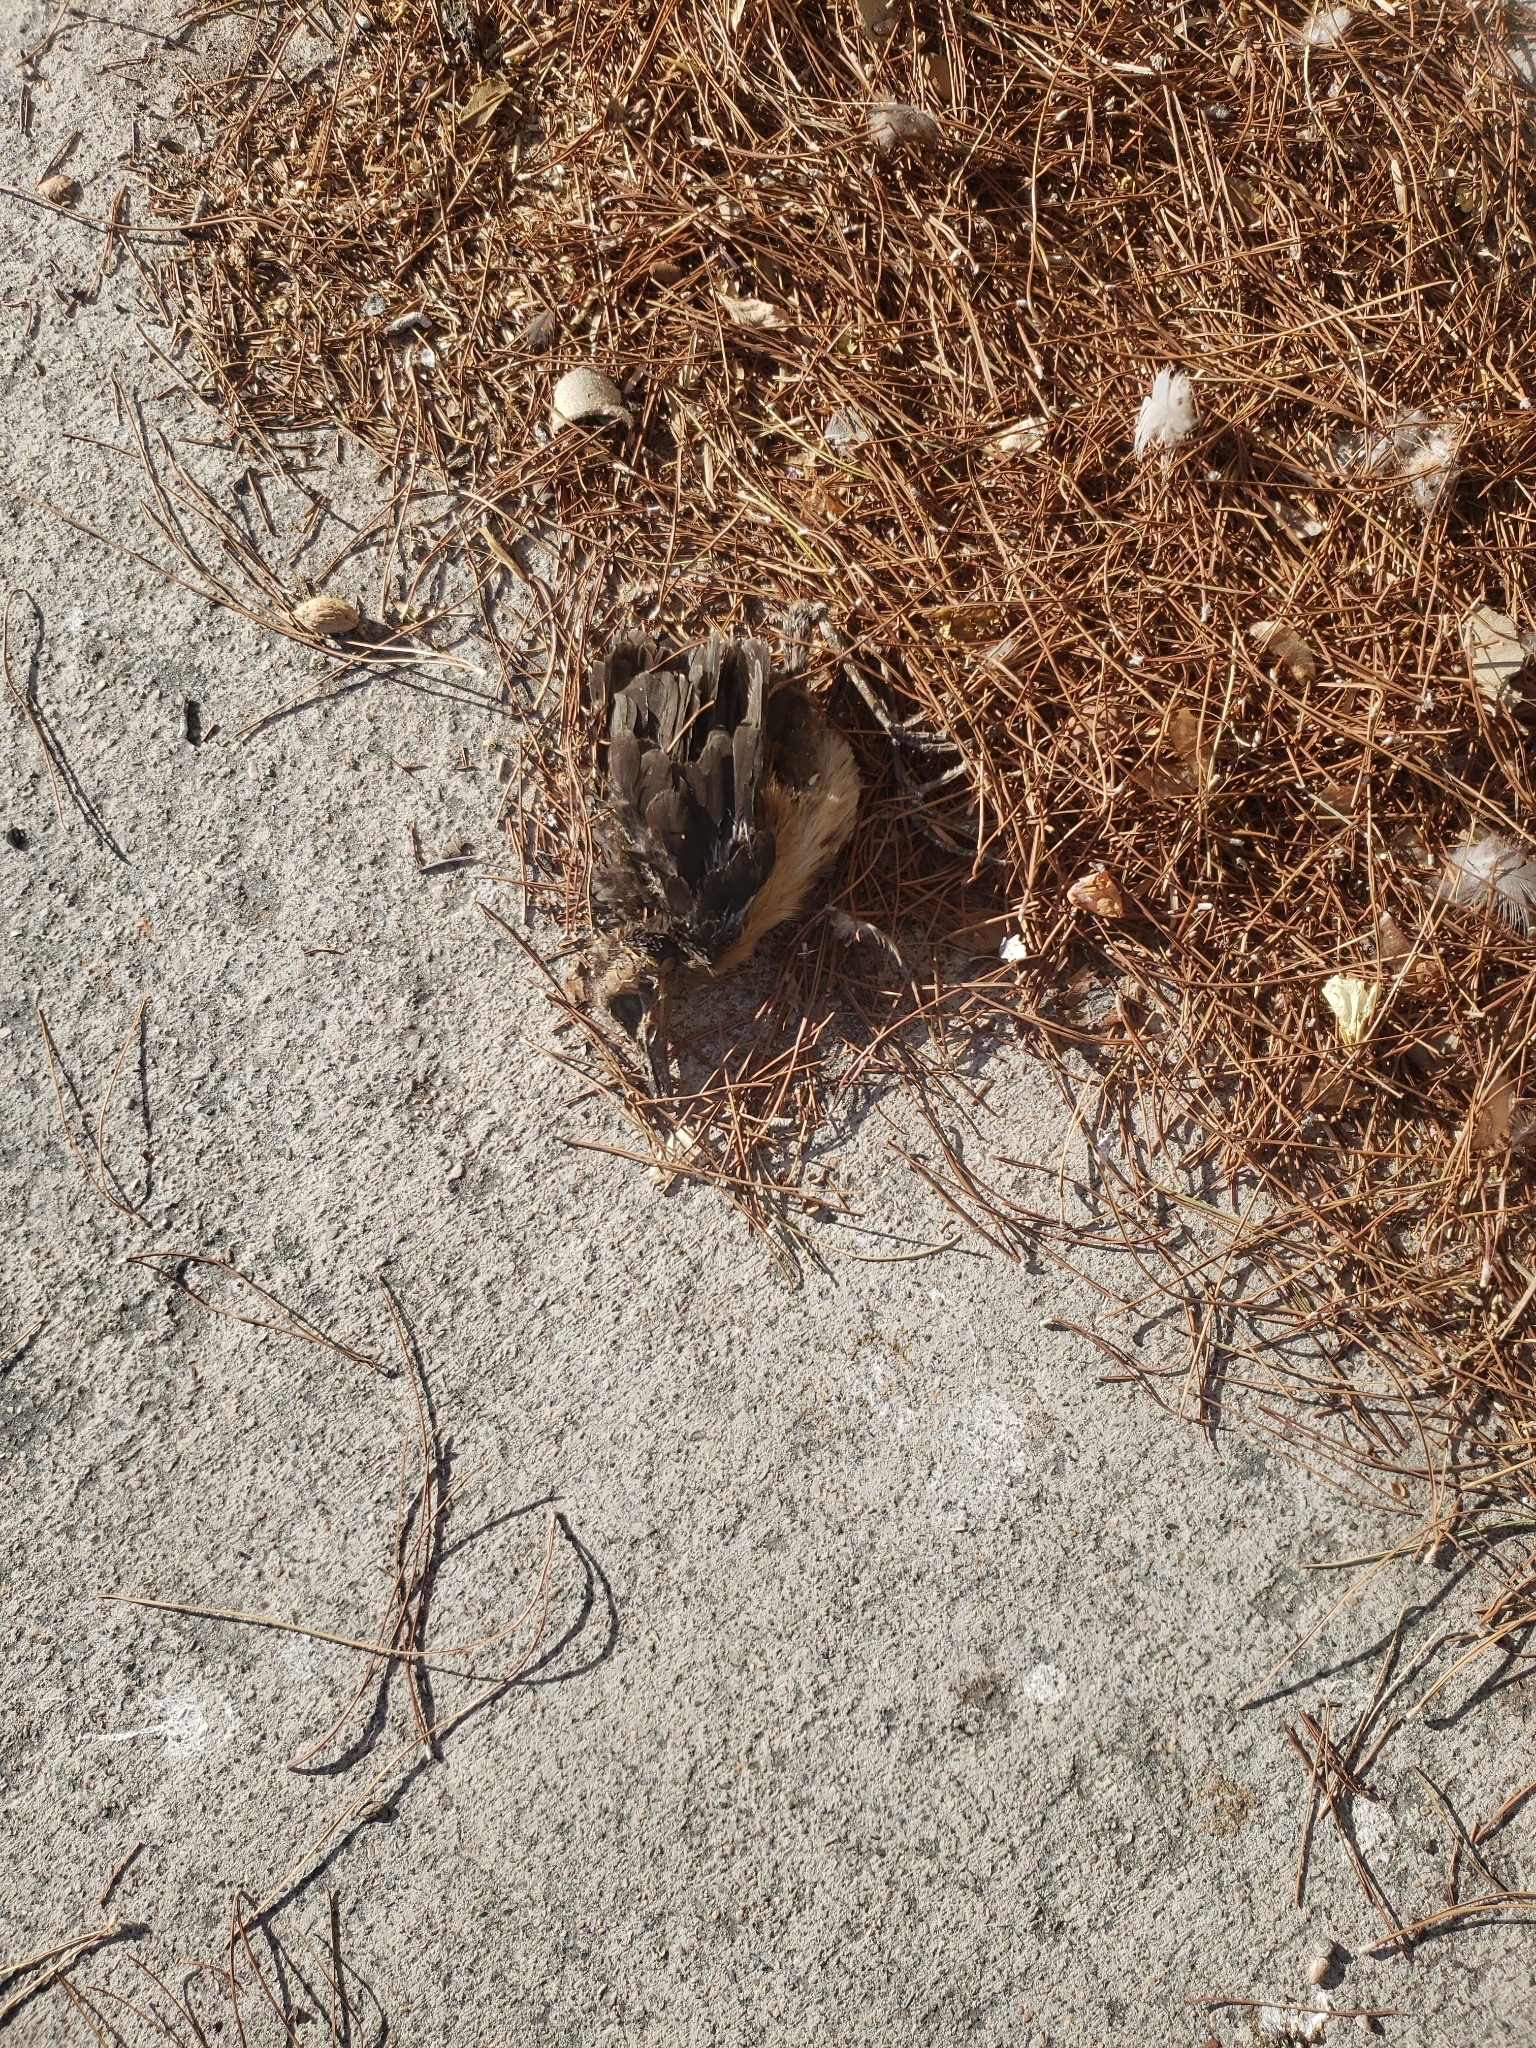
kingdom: Animalia
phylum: Chordata
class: Aves
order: Passeriformes
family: Icteridae
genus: Quiscalus
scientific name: Quiscalus mexicanus
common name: Great-tailed grackle
